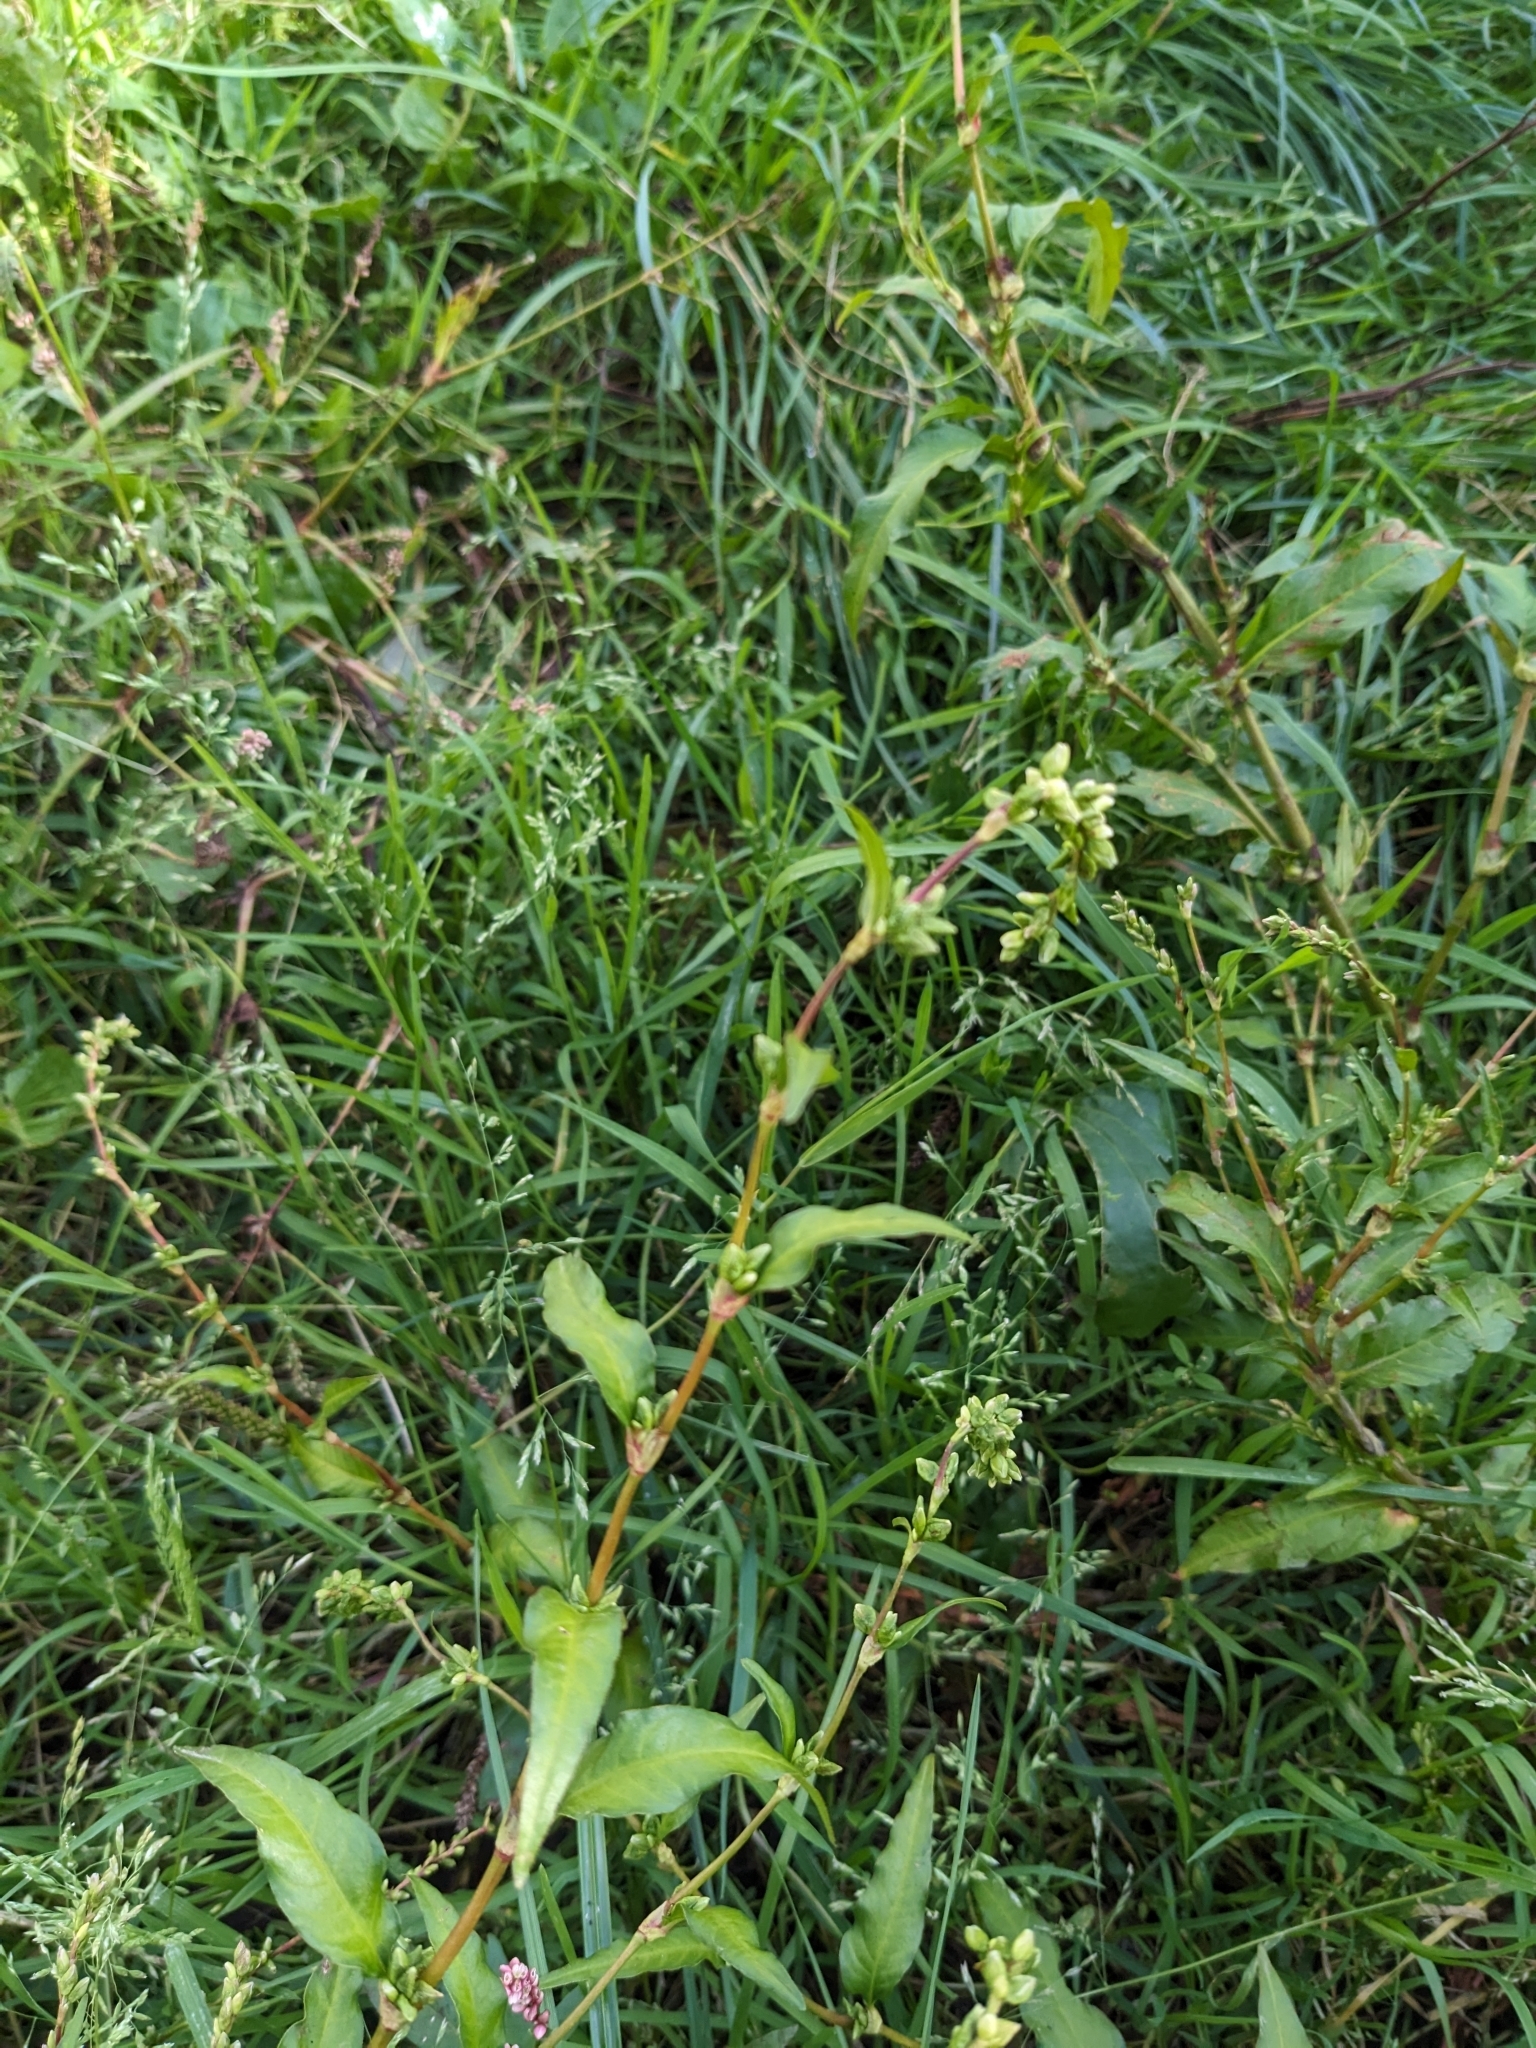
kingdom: Plantae
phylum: Tracheophyta
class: Magnoliopsida
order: Caryophyllales
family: Polygonaceae
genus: Persicaria
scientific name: Persicaria hydropiper
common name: Water-pepper
